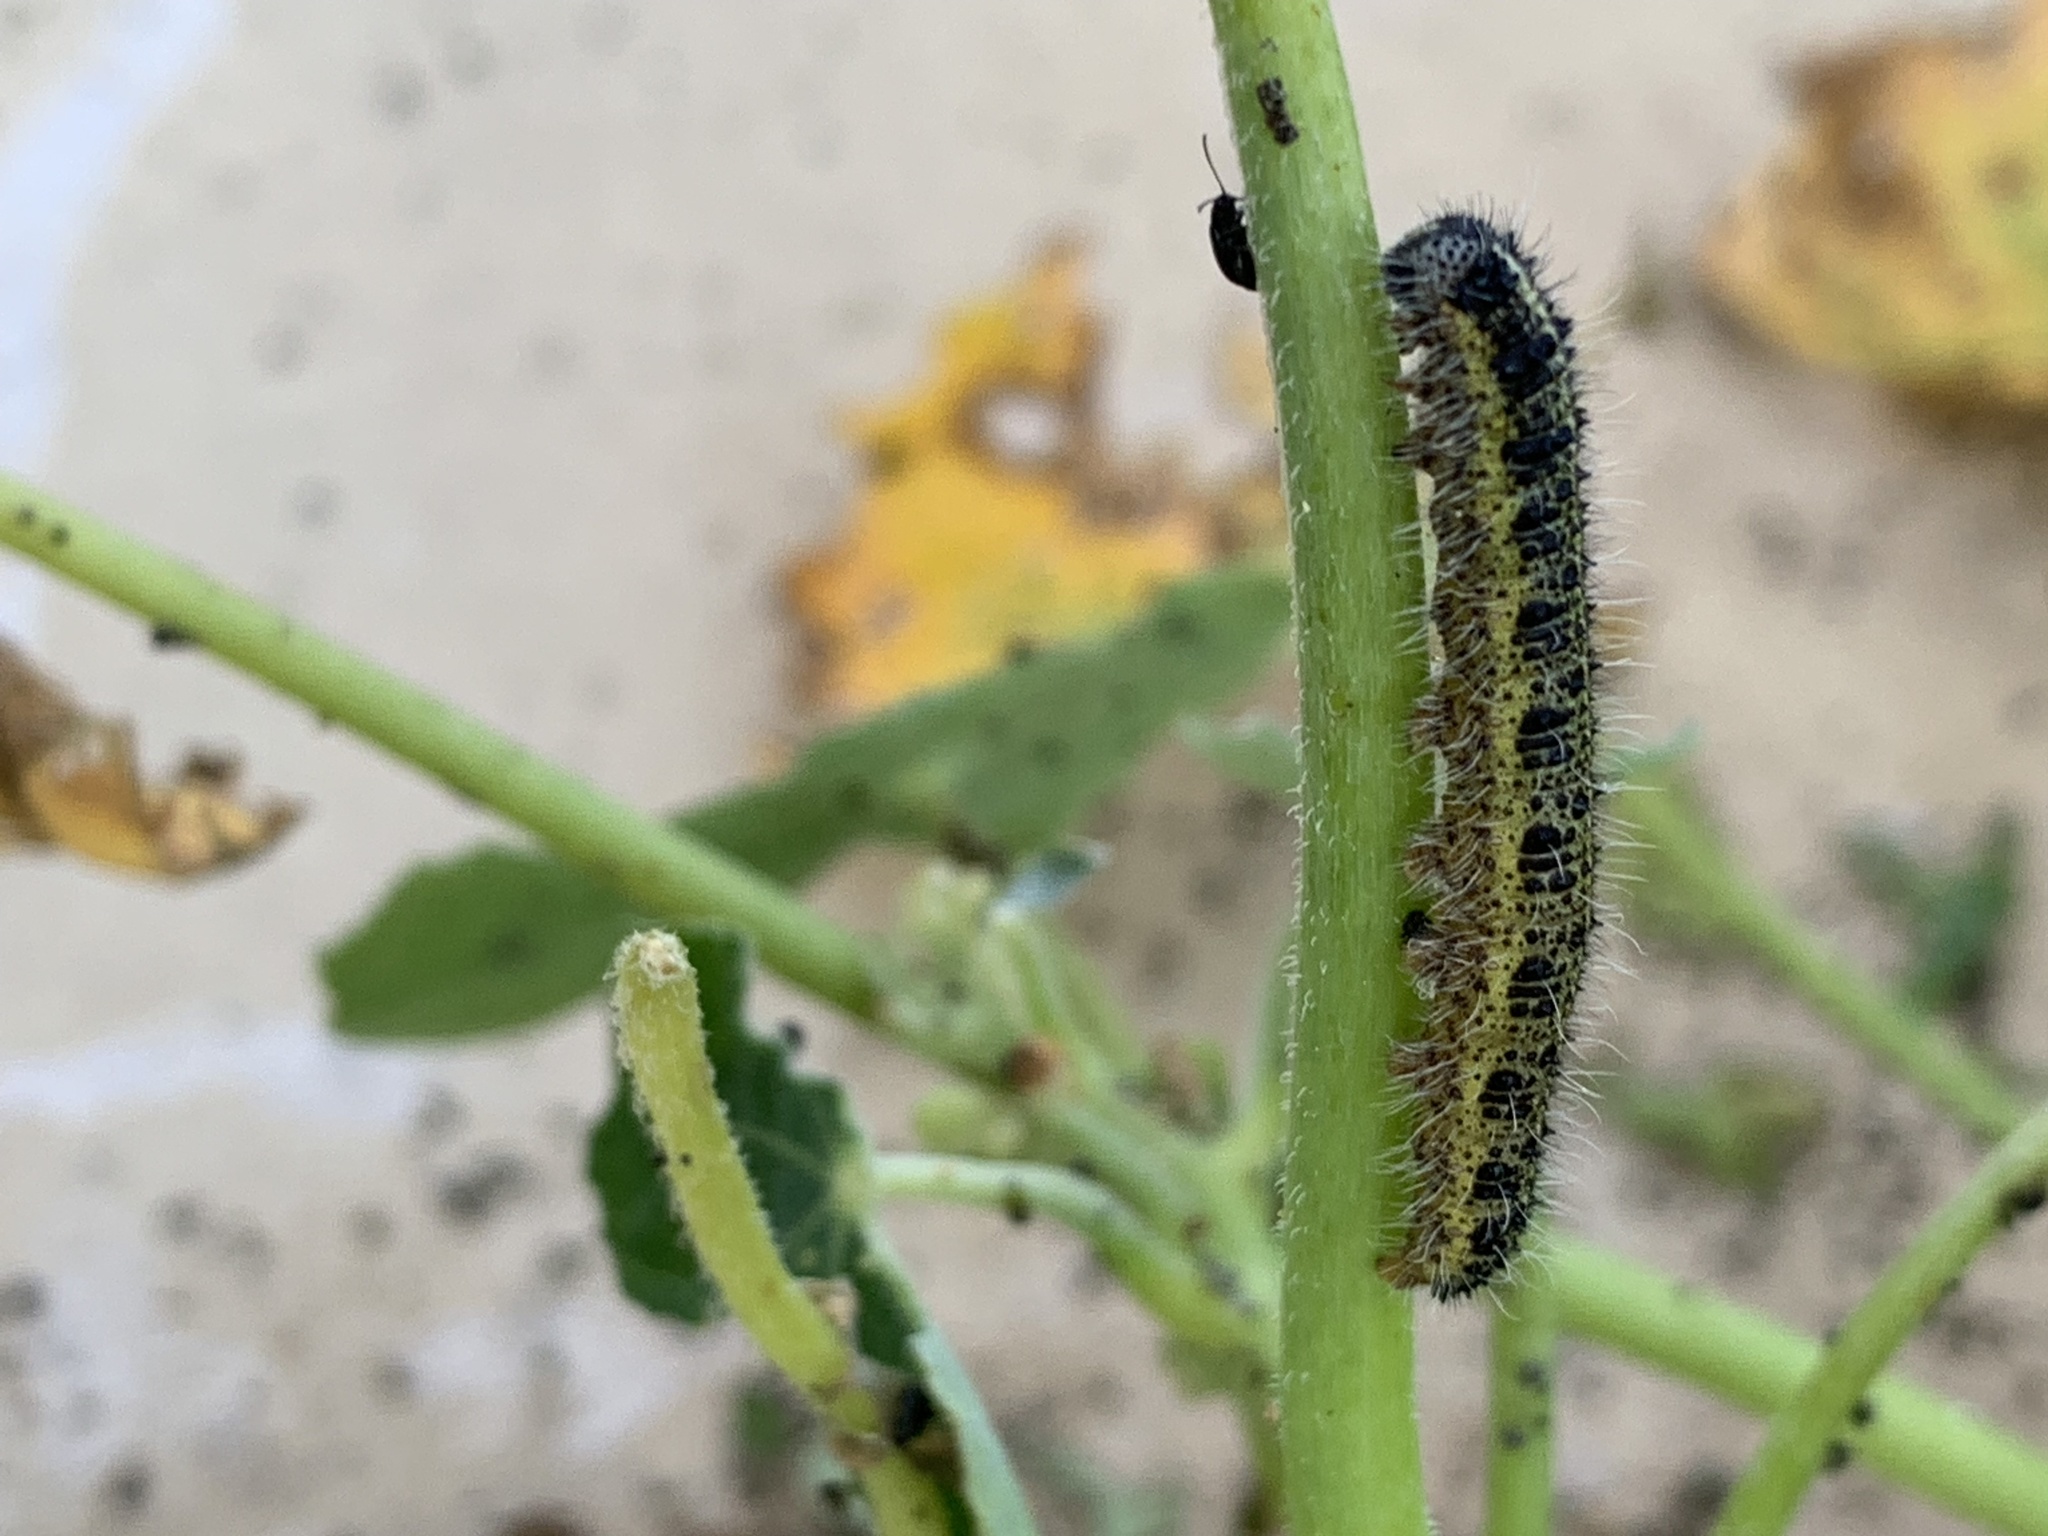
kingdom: Animalia
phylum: Arthropoda
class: Insecta
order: Lepidoptera
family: Pieridae
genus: Pieris
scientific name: Pieris brassicae
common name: Large white
